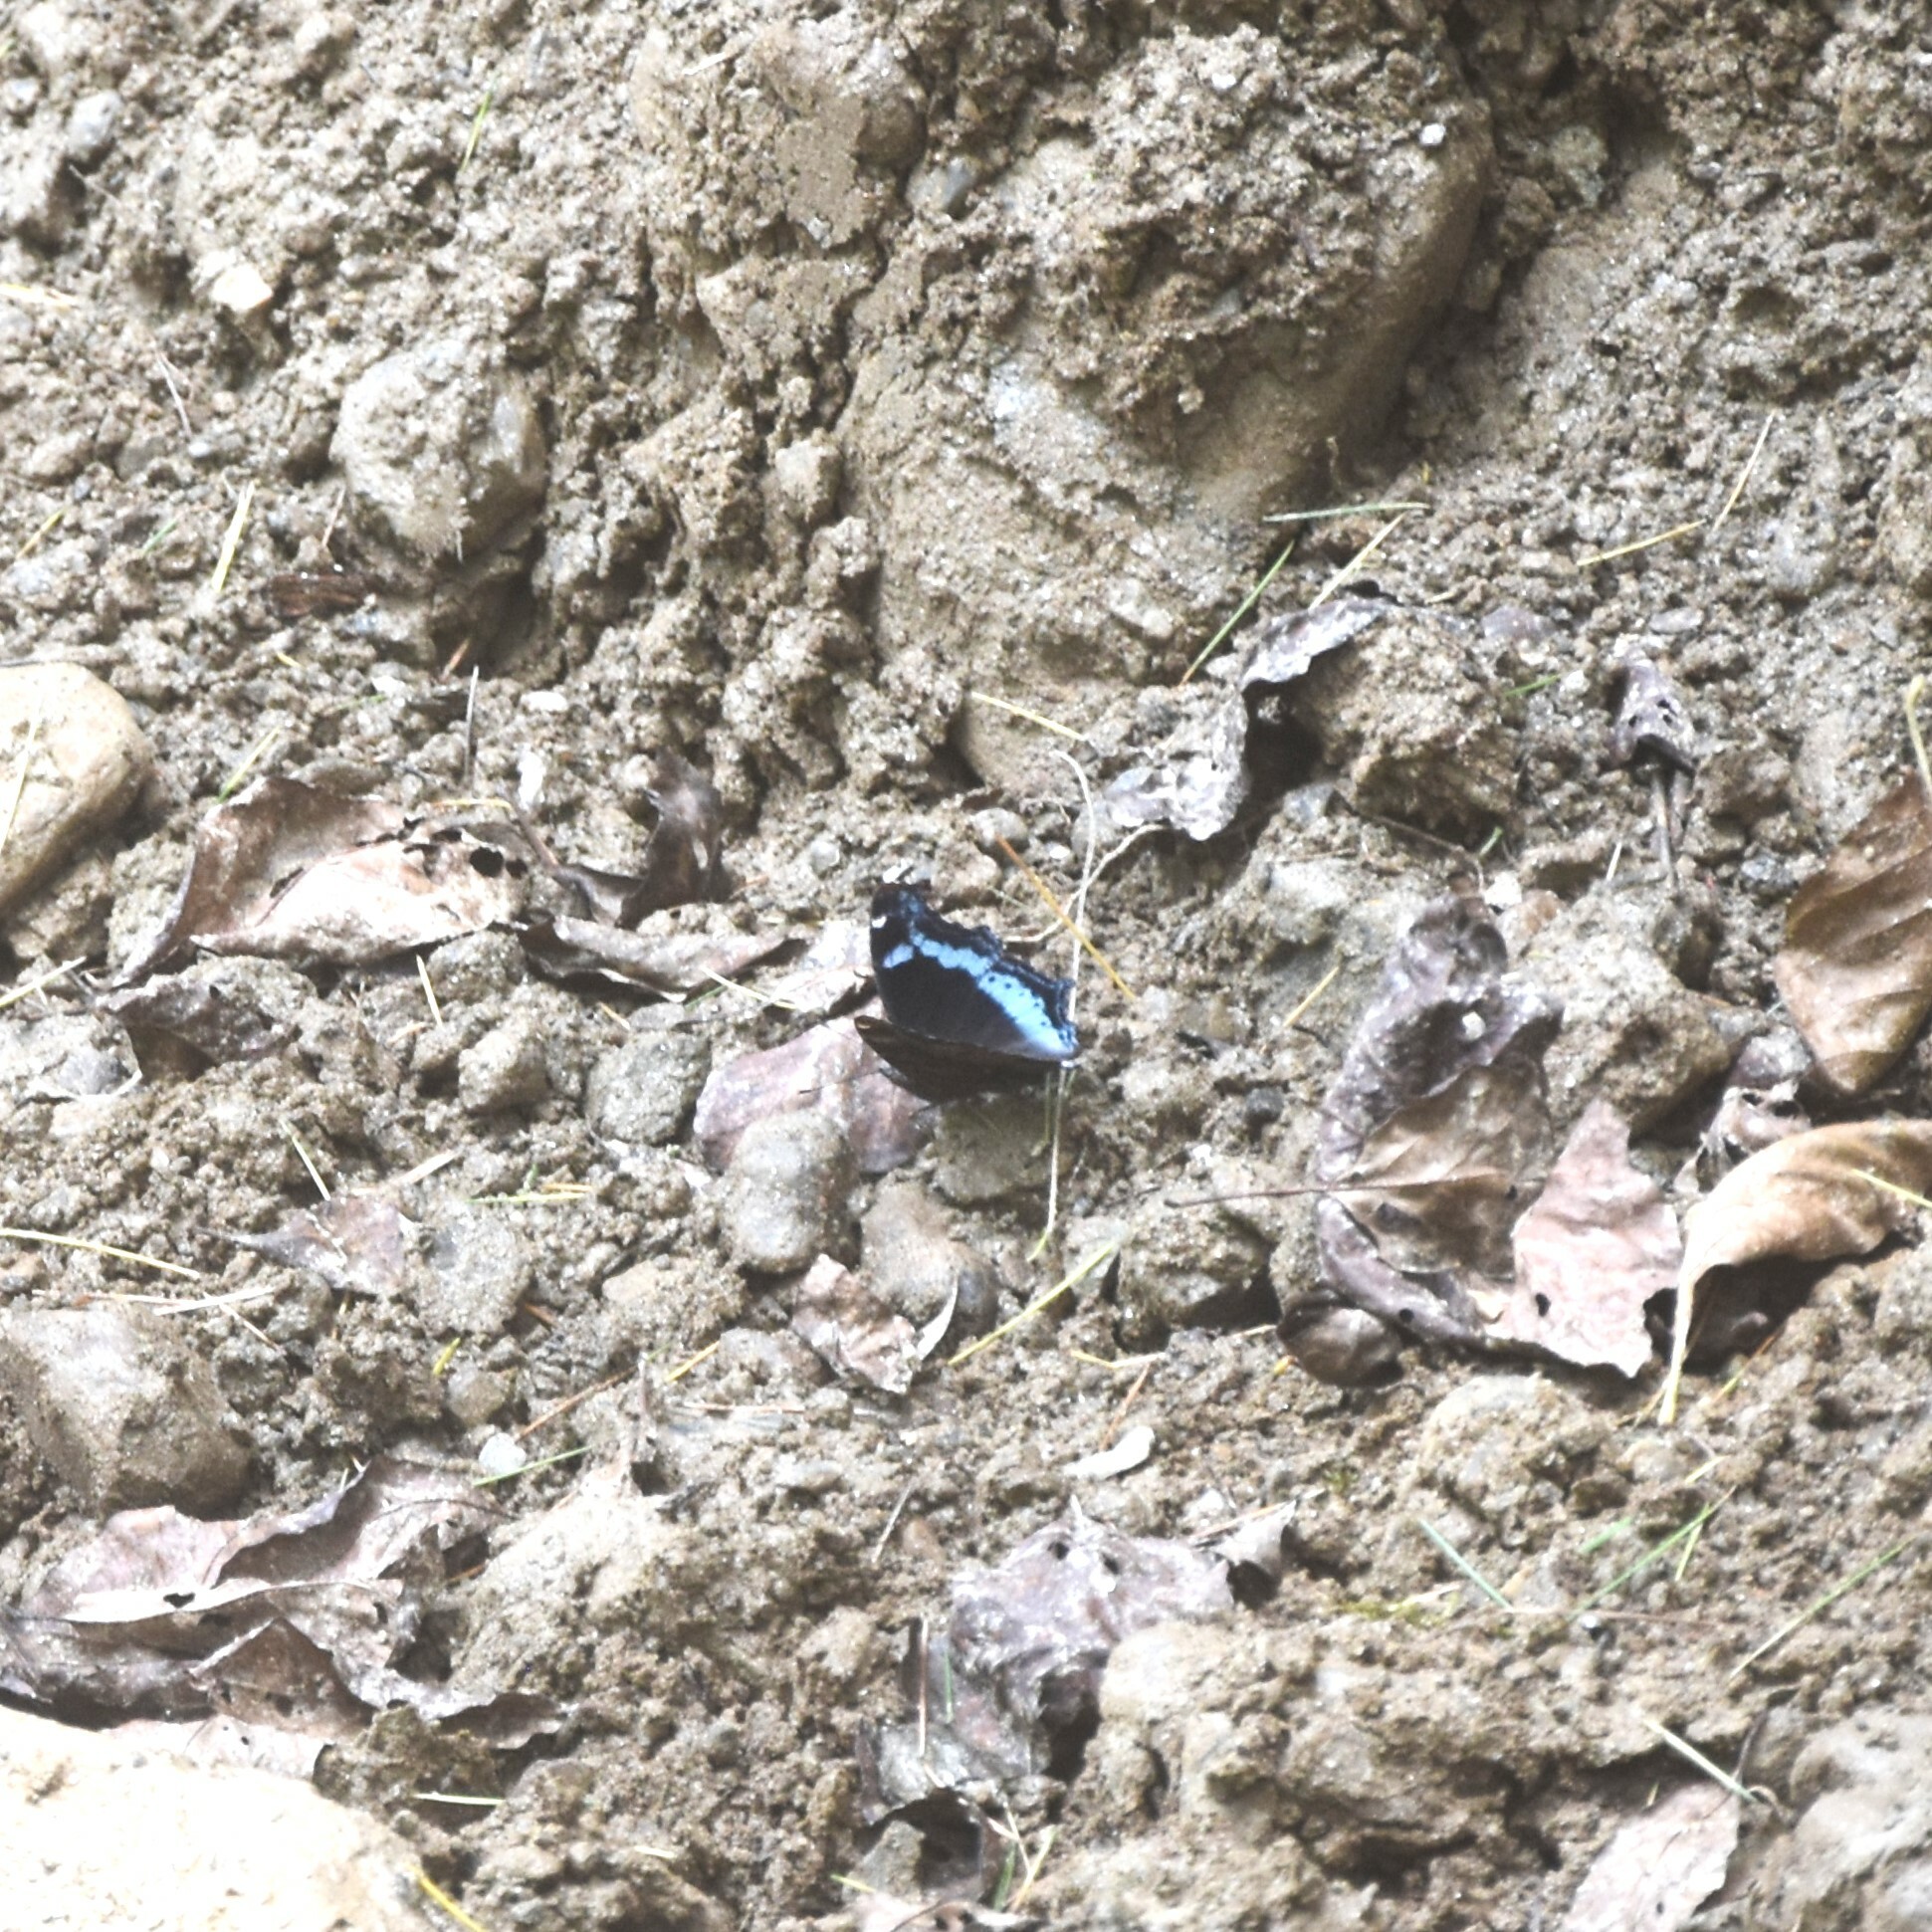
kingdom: Animalia
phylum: Arthropoda
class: Insecta
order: Lepidoptera
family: Nymphalidae
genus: Vanessa
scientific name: Vanessa Kaniska canace
